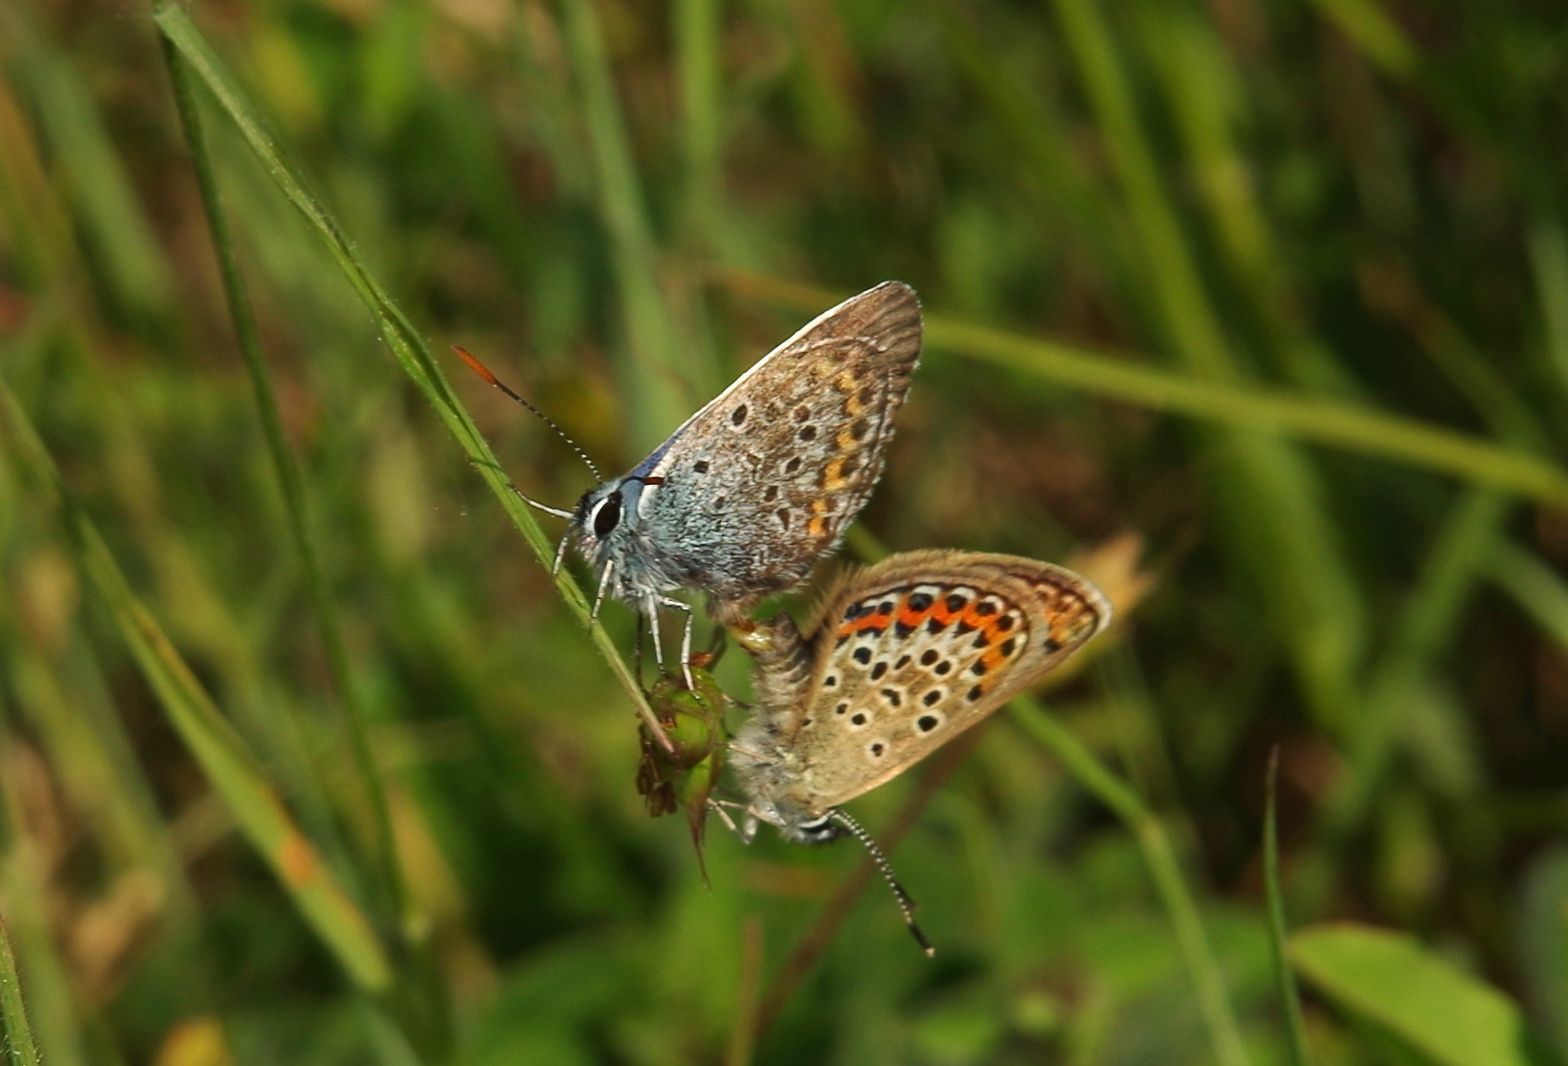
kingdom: Animalia
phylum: Arthropoda
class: Insecta
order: Lepidoptera
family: Lycaenidae
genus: Plebejus
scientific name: Plebejus argus
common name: Silver-studded blue
